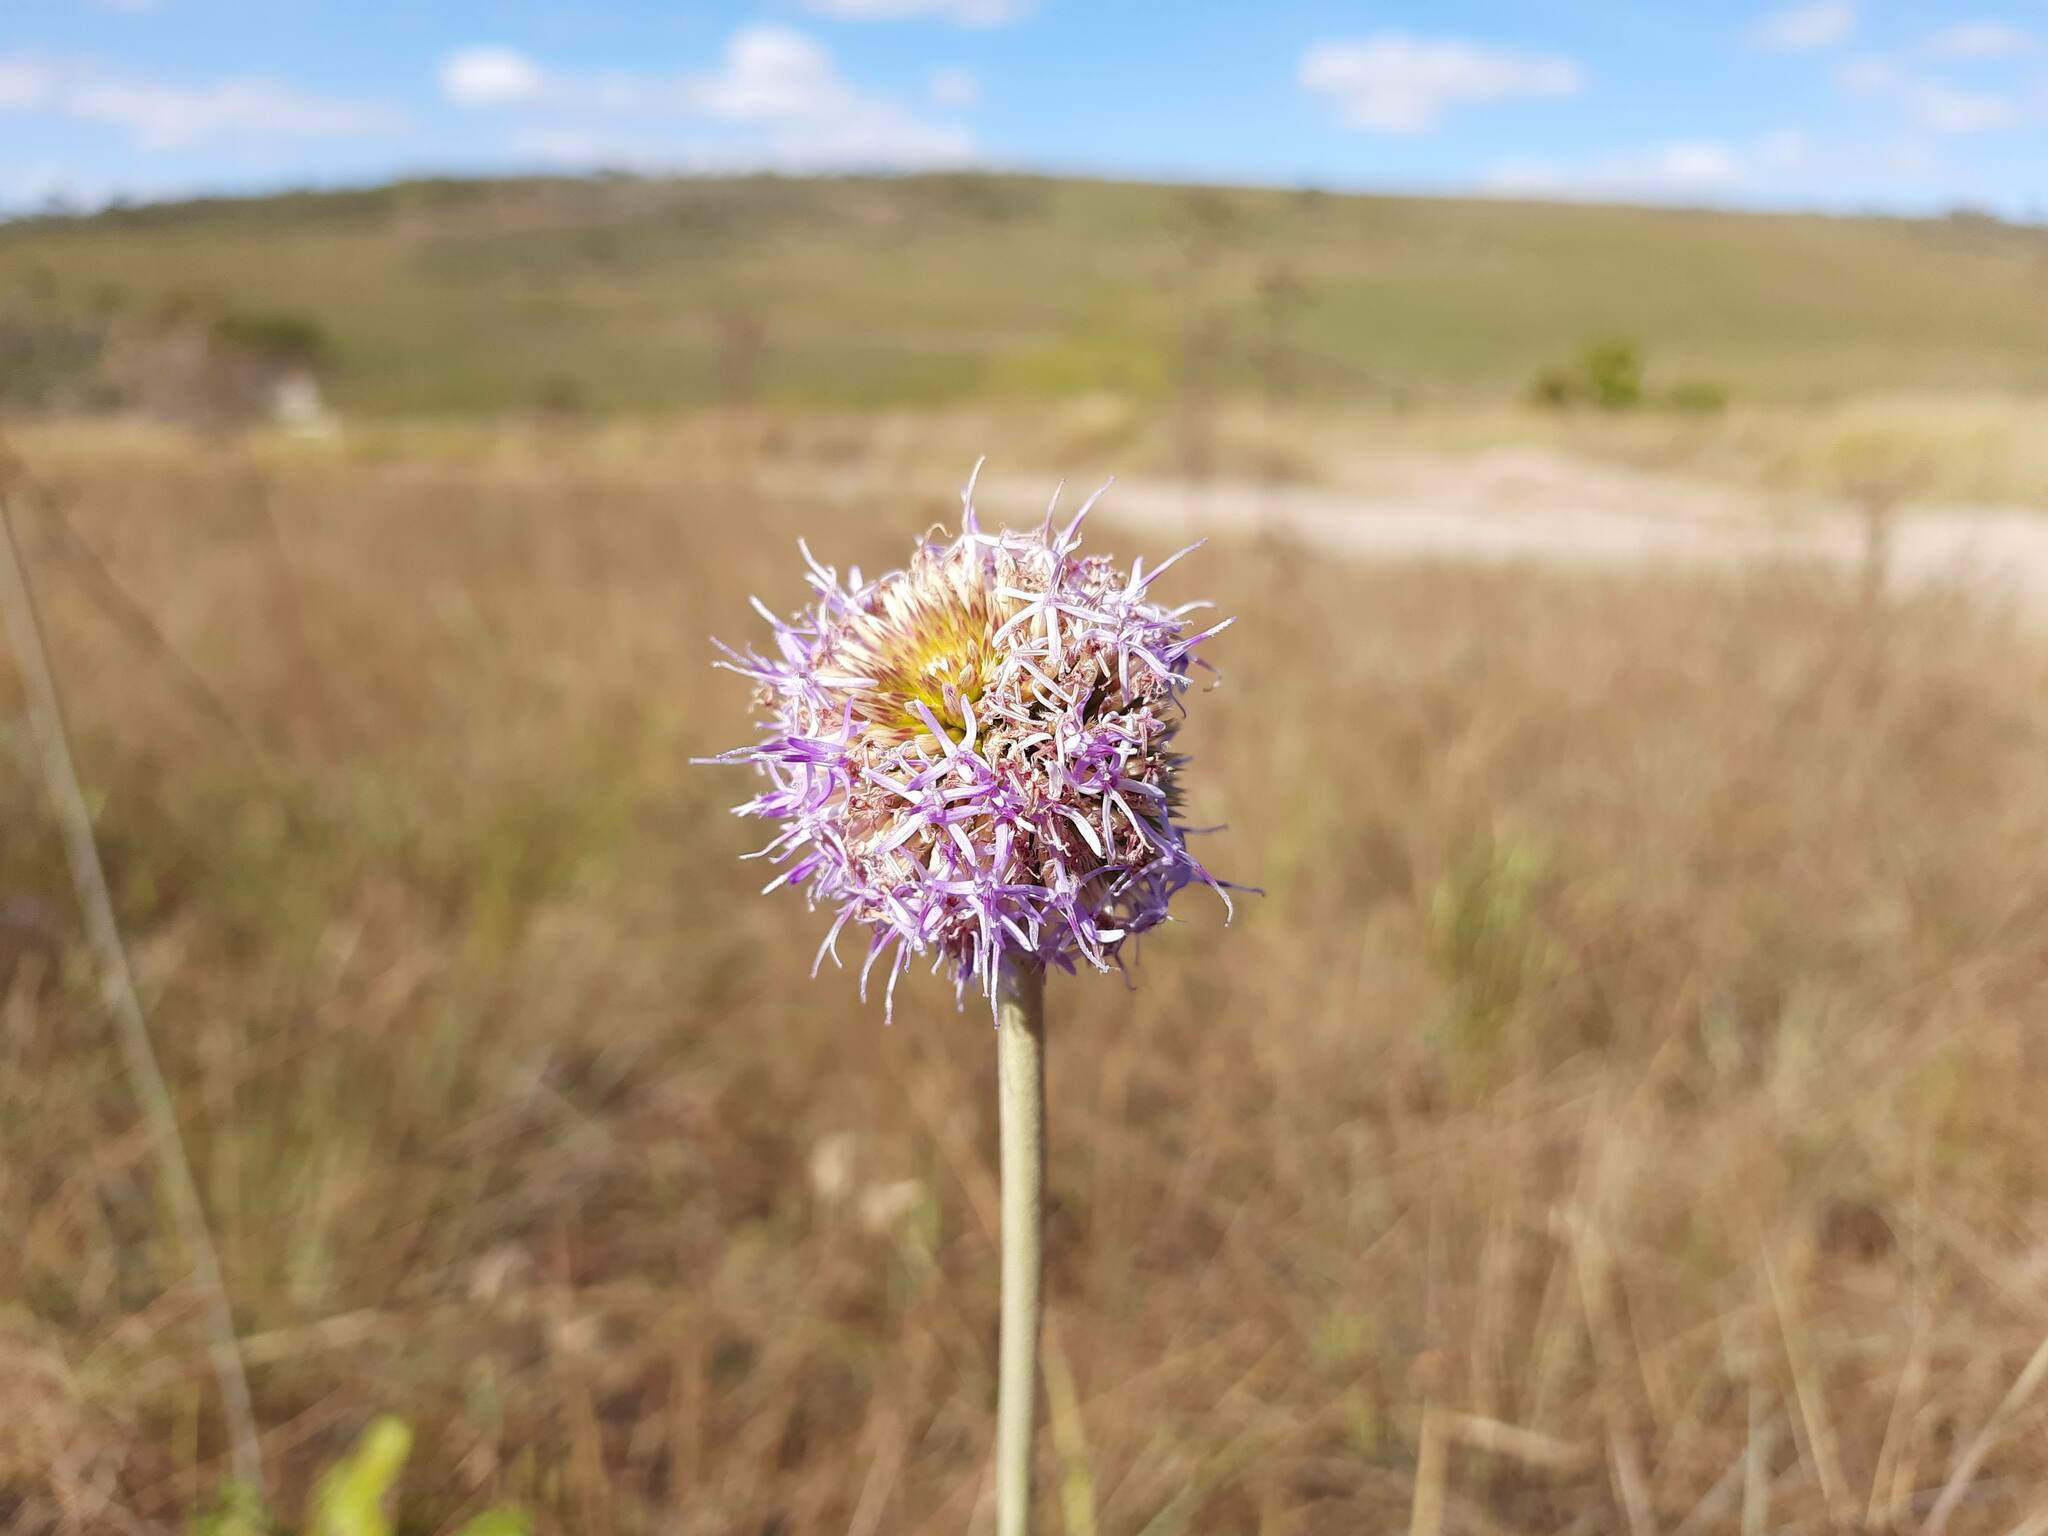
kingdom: Plantae
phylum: Tracheophyta
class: Magnoliopsida
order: Asterales
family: Asteraceae
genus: Chresta
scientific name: Chresta sphaerocephala
